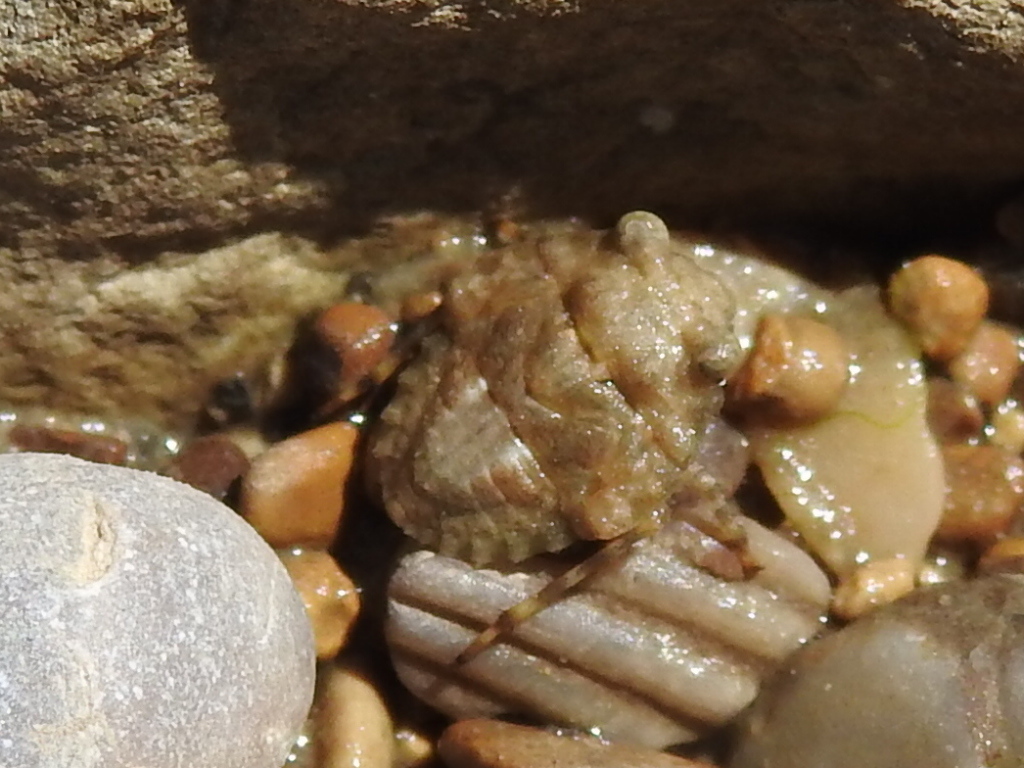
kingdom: Animalia
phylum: Arthropoda
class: Insecta
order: Hemiptera
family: Gelastocoridae
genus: Gelastocoris
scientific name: Gelastocoris oculatus
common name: Toad bug
